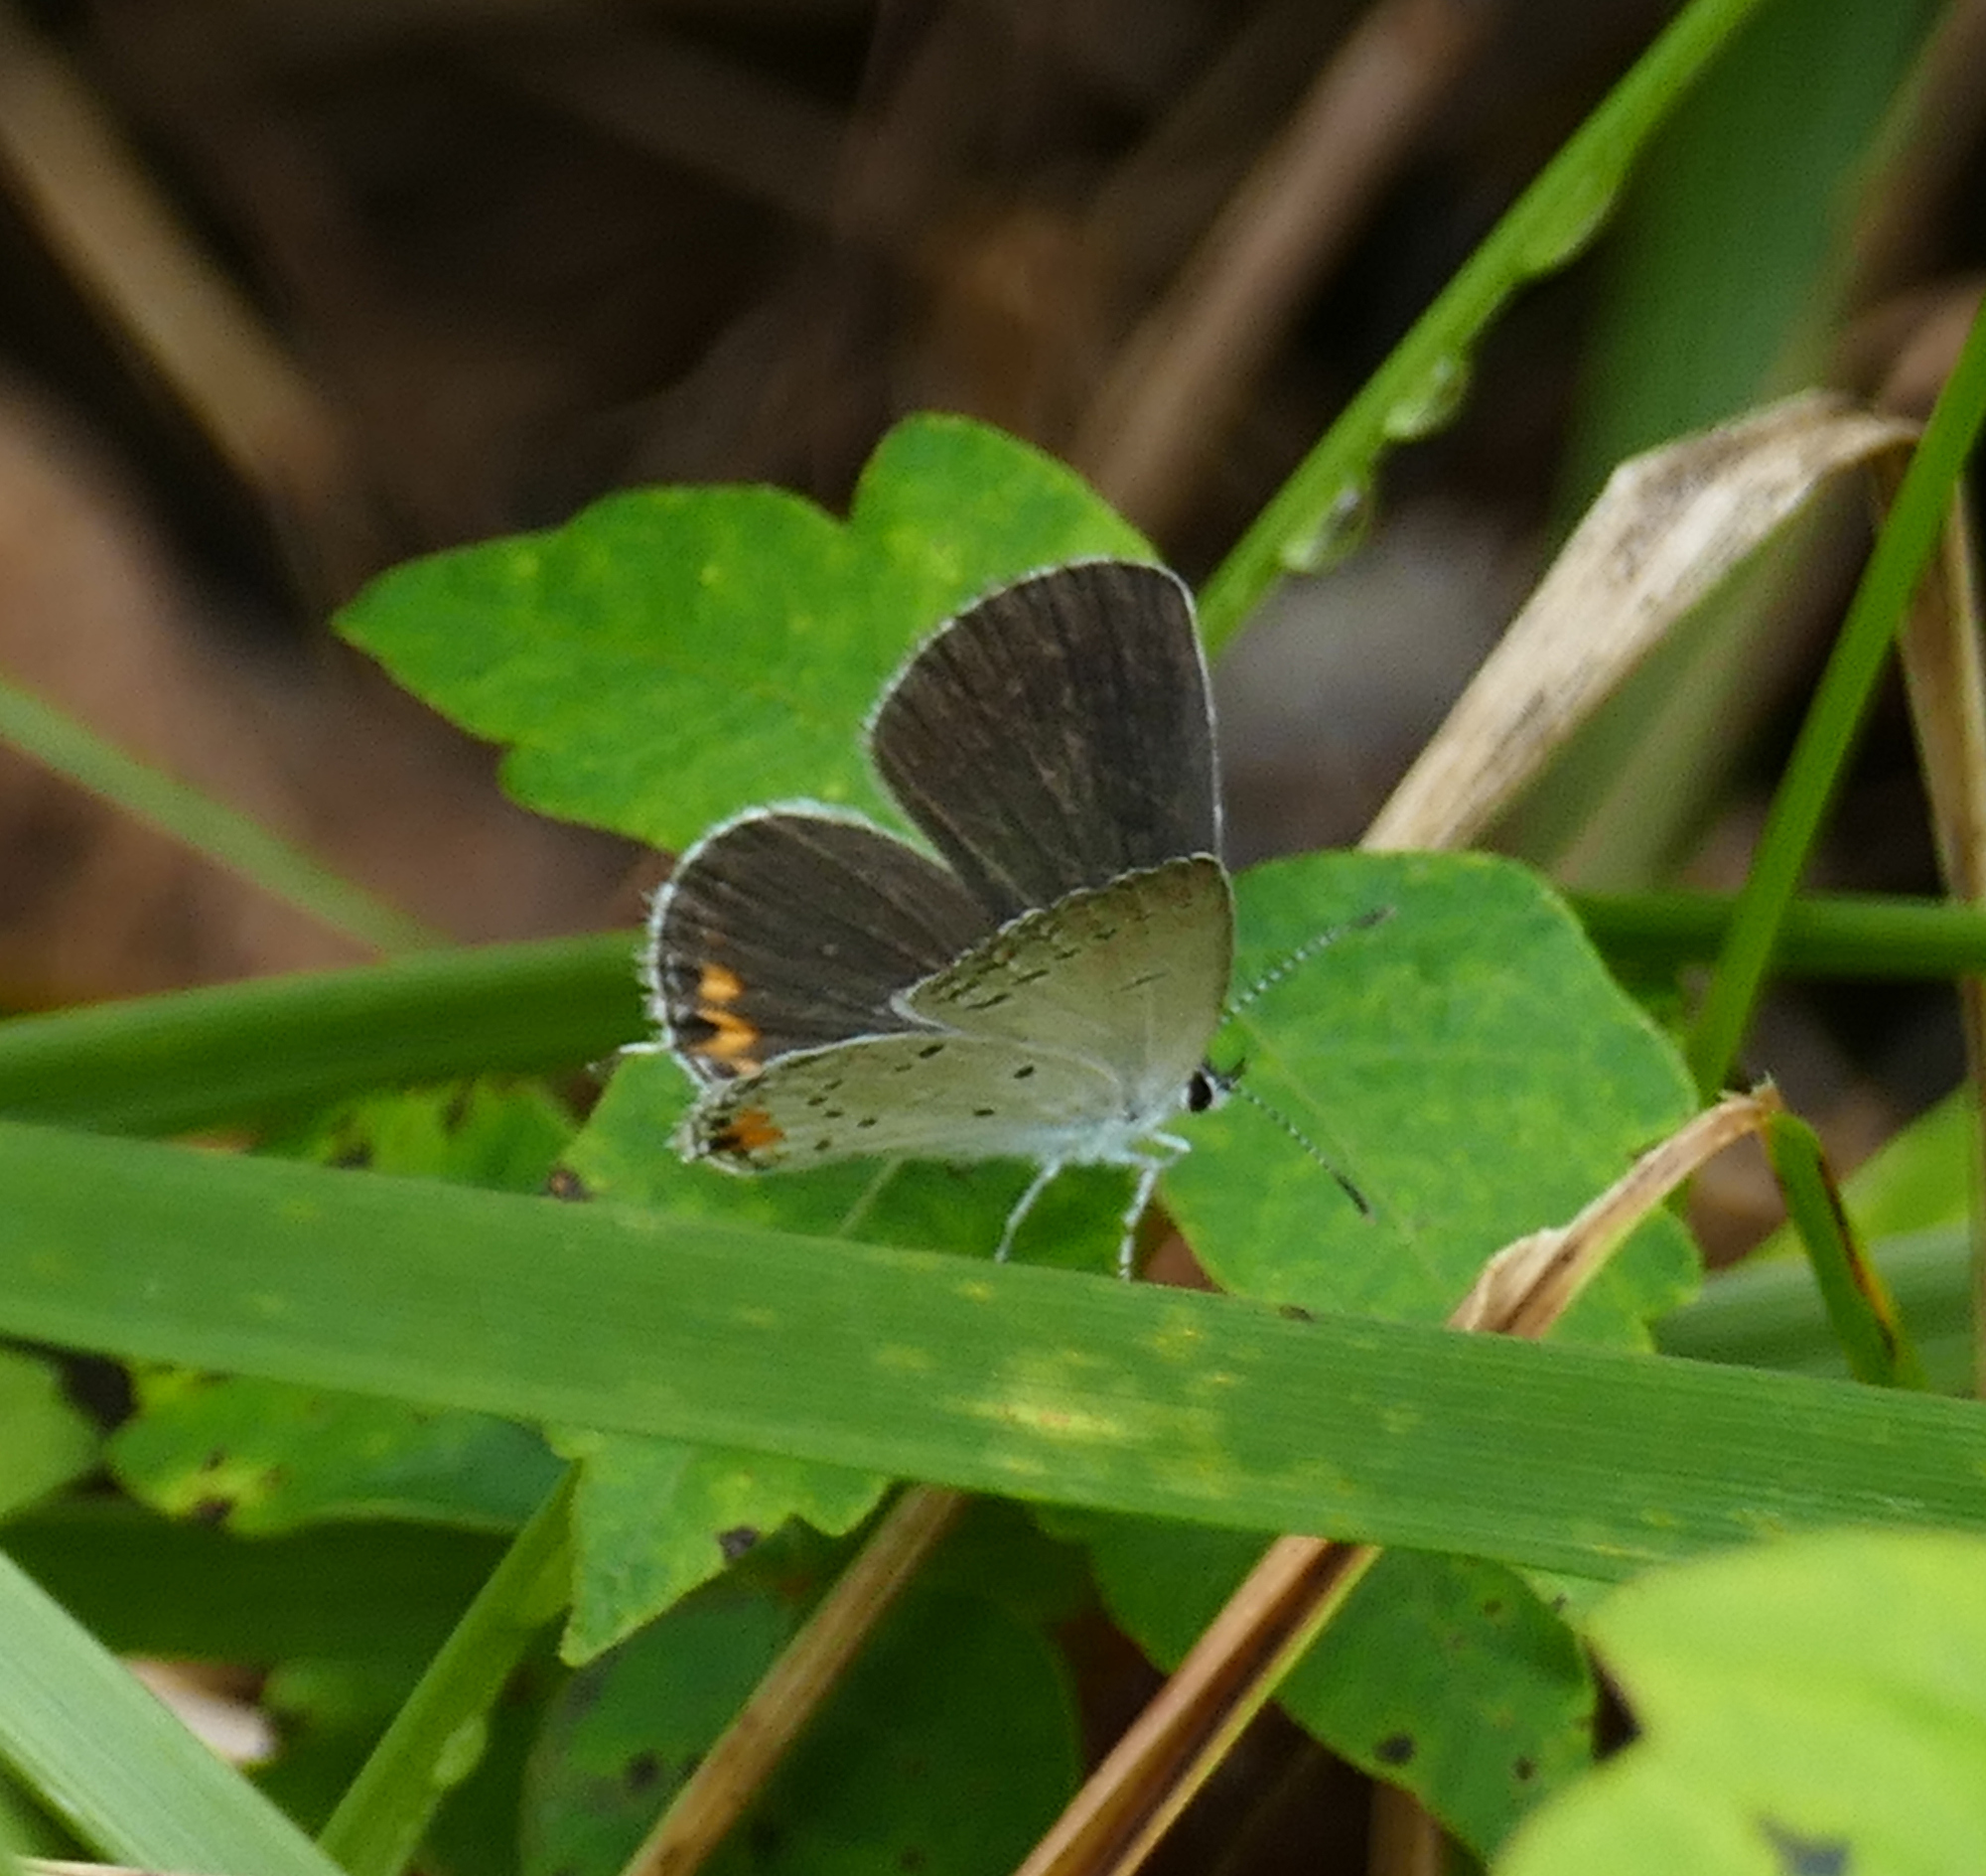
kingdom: Animalia
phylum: Arthropoda
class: Insecta
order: Lepidoptera
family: Lycaenidae
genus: Elkalyce
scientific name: Elkalyce comyntas
